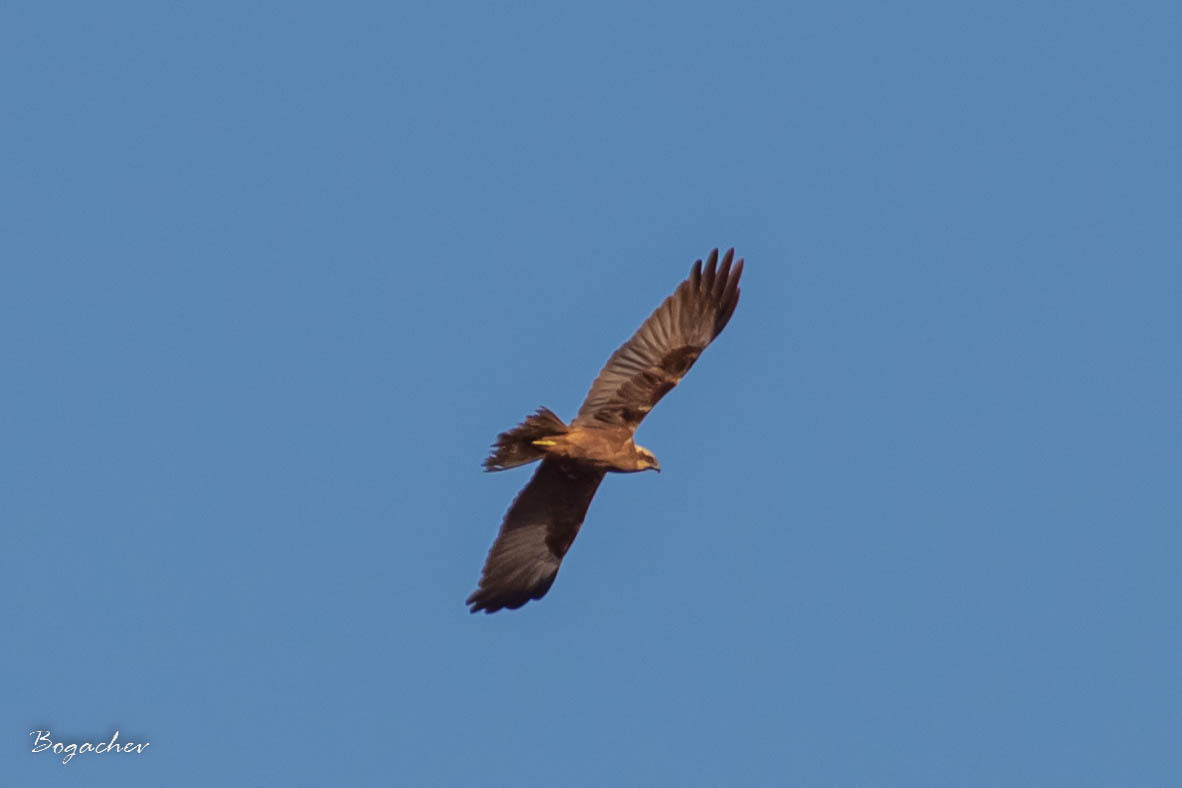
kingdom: Animalia
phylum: Chordata
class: Aves
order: Accipitriformes
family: Accipitridae
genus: Circus
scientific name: Circus aeruginosus
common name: Western marsh harrier
